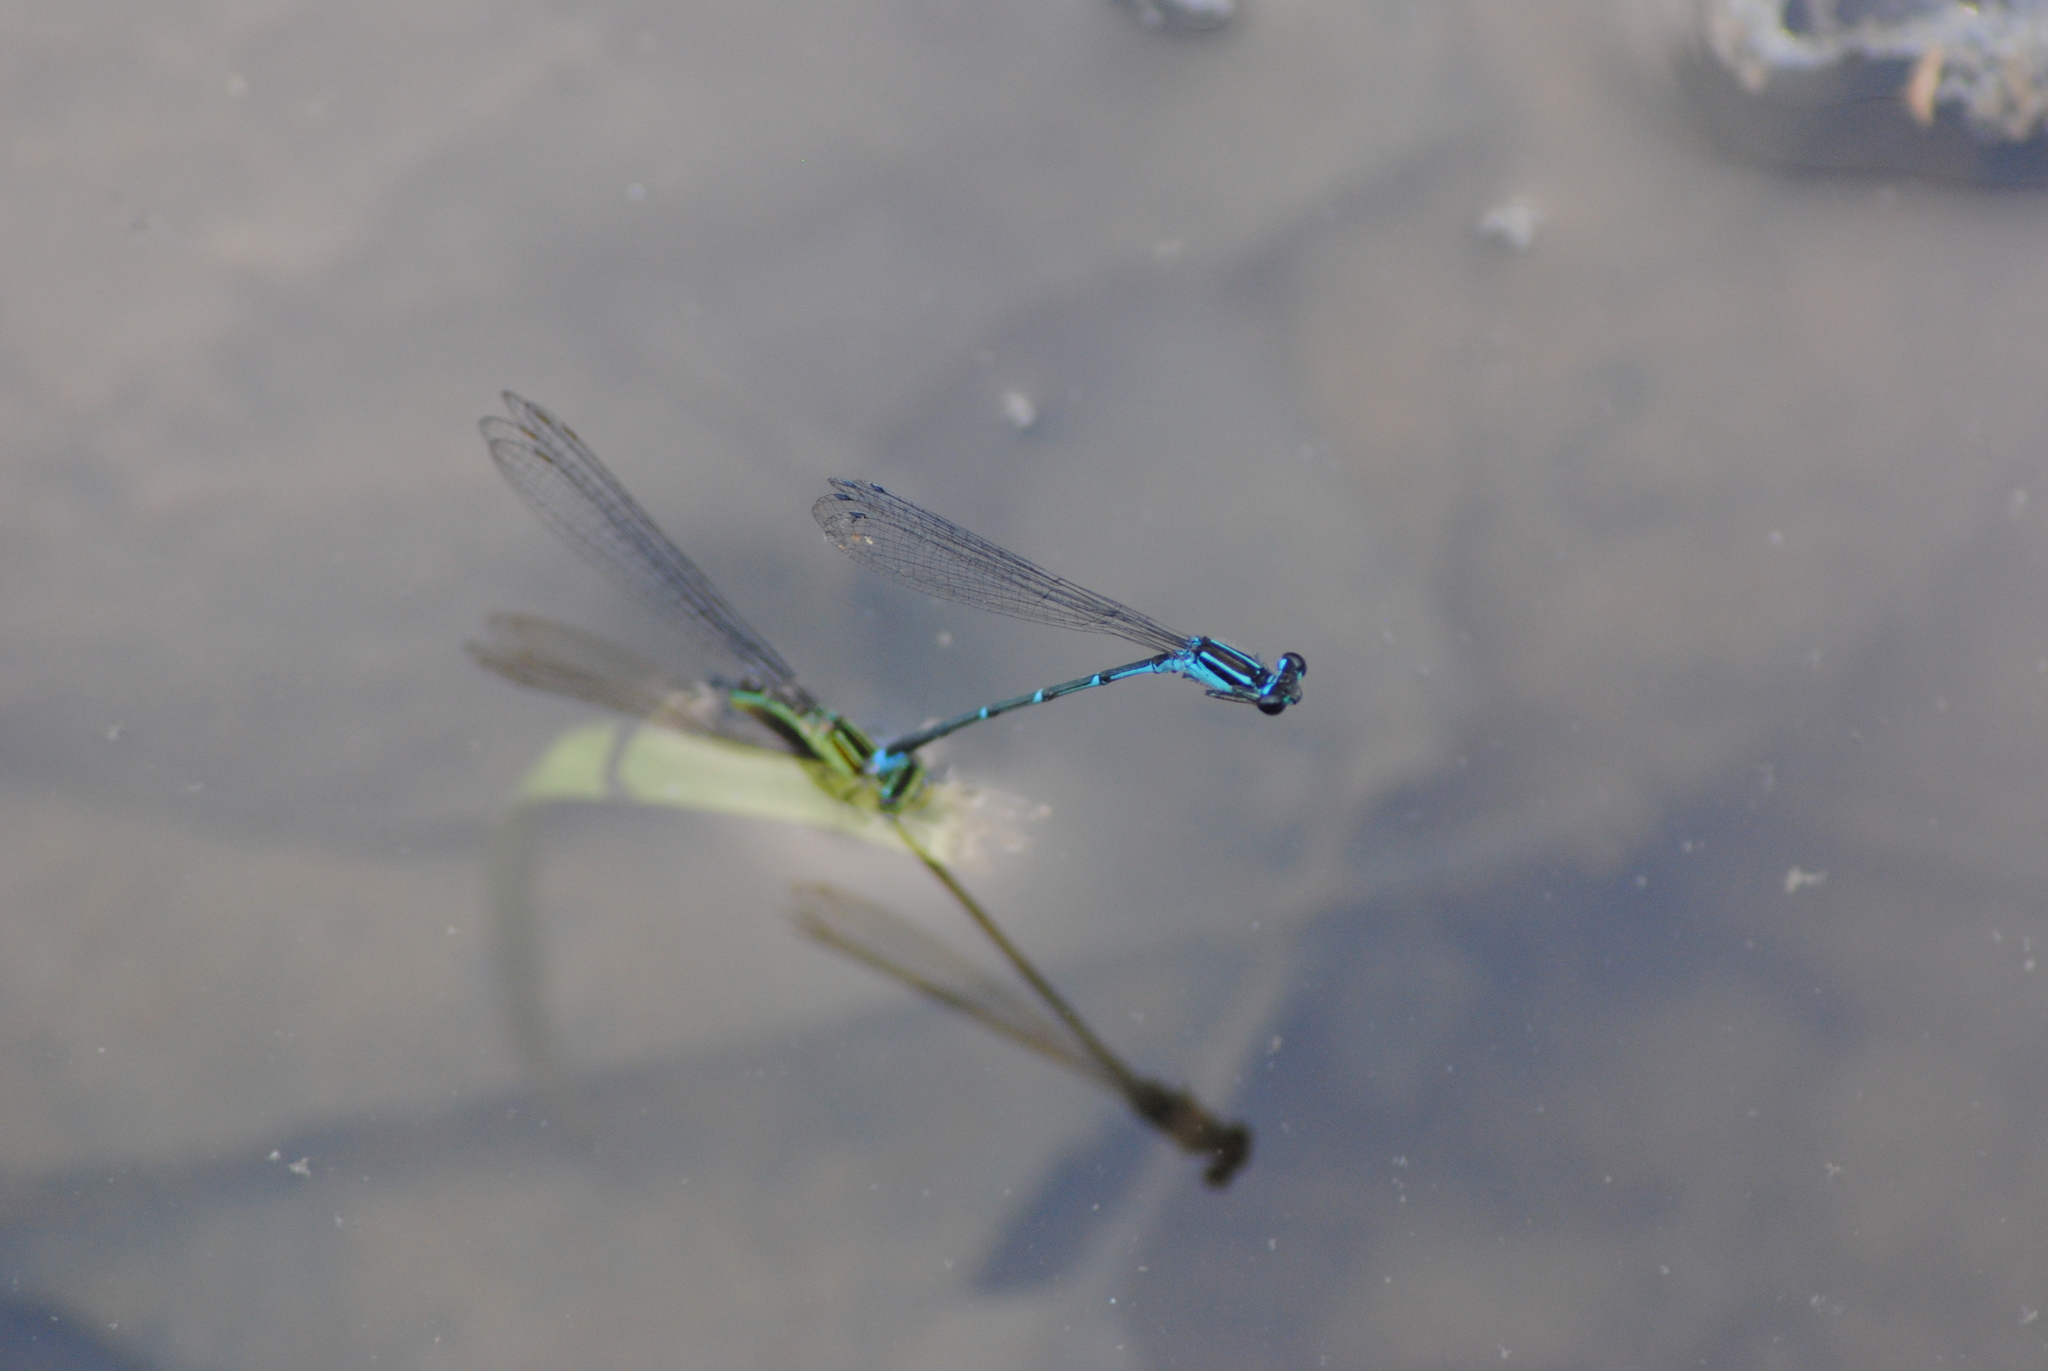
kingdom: Animalia
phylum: Arthropoda
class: Insecta
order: Odonata
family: Coenagrionidae
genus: Enallagma
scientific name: Enallagma exsulans
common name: Stream bluet
